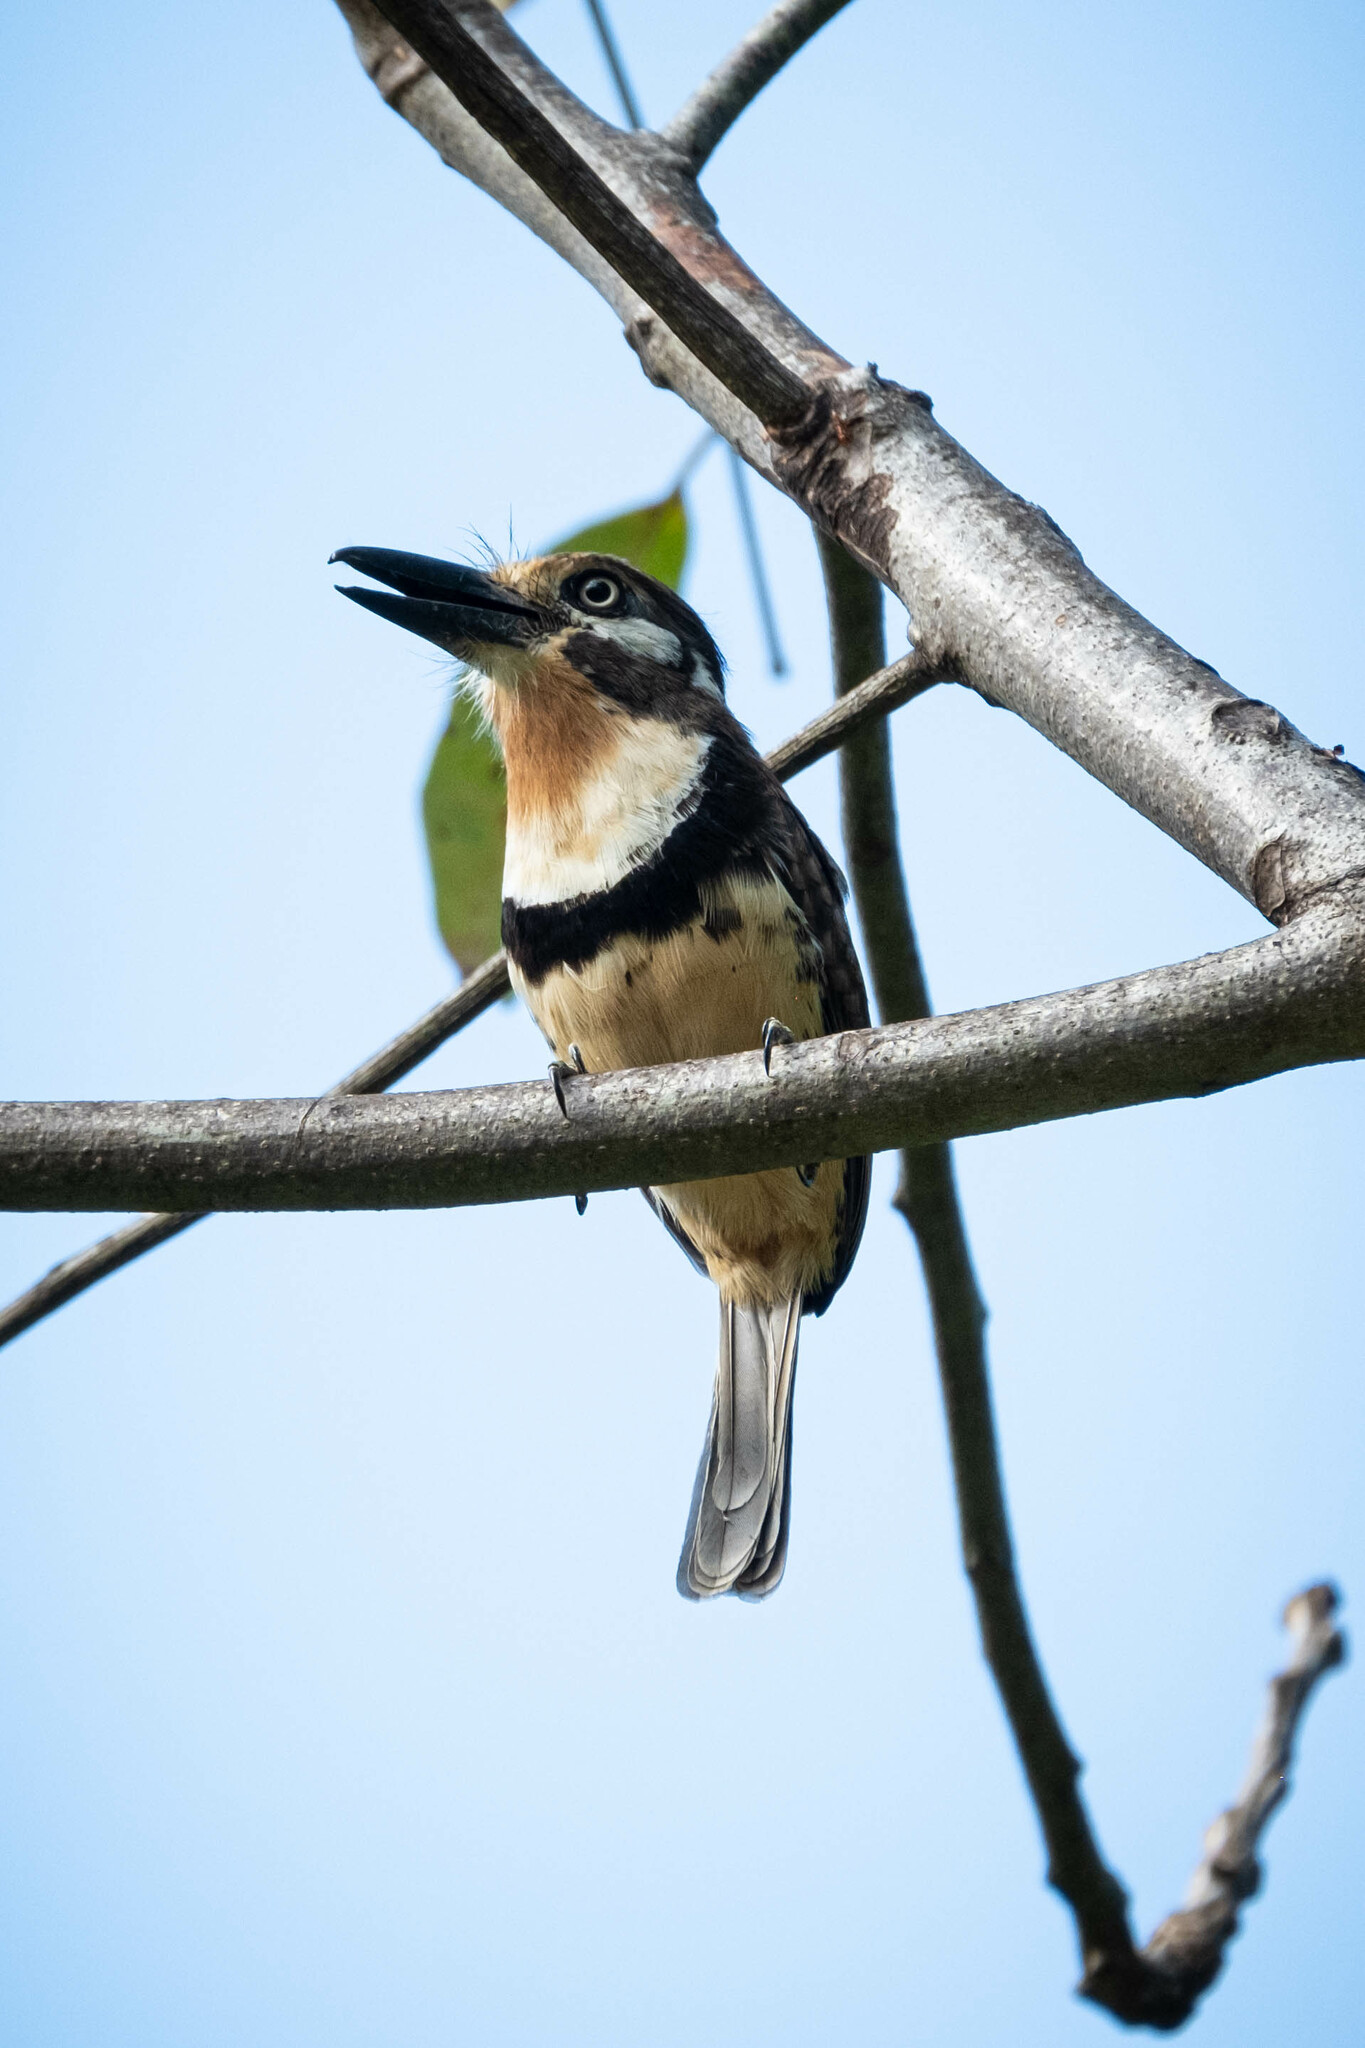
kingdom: Animalia
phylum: Chordata
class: Aves
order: Piciformes
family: Bucconidae
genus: Hypnelus
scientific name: Hypnelus ruficollis
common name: Russet-throated puffbird
